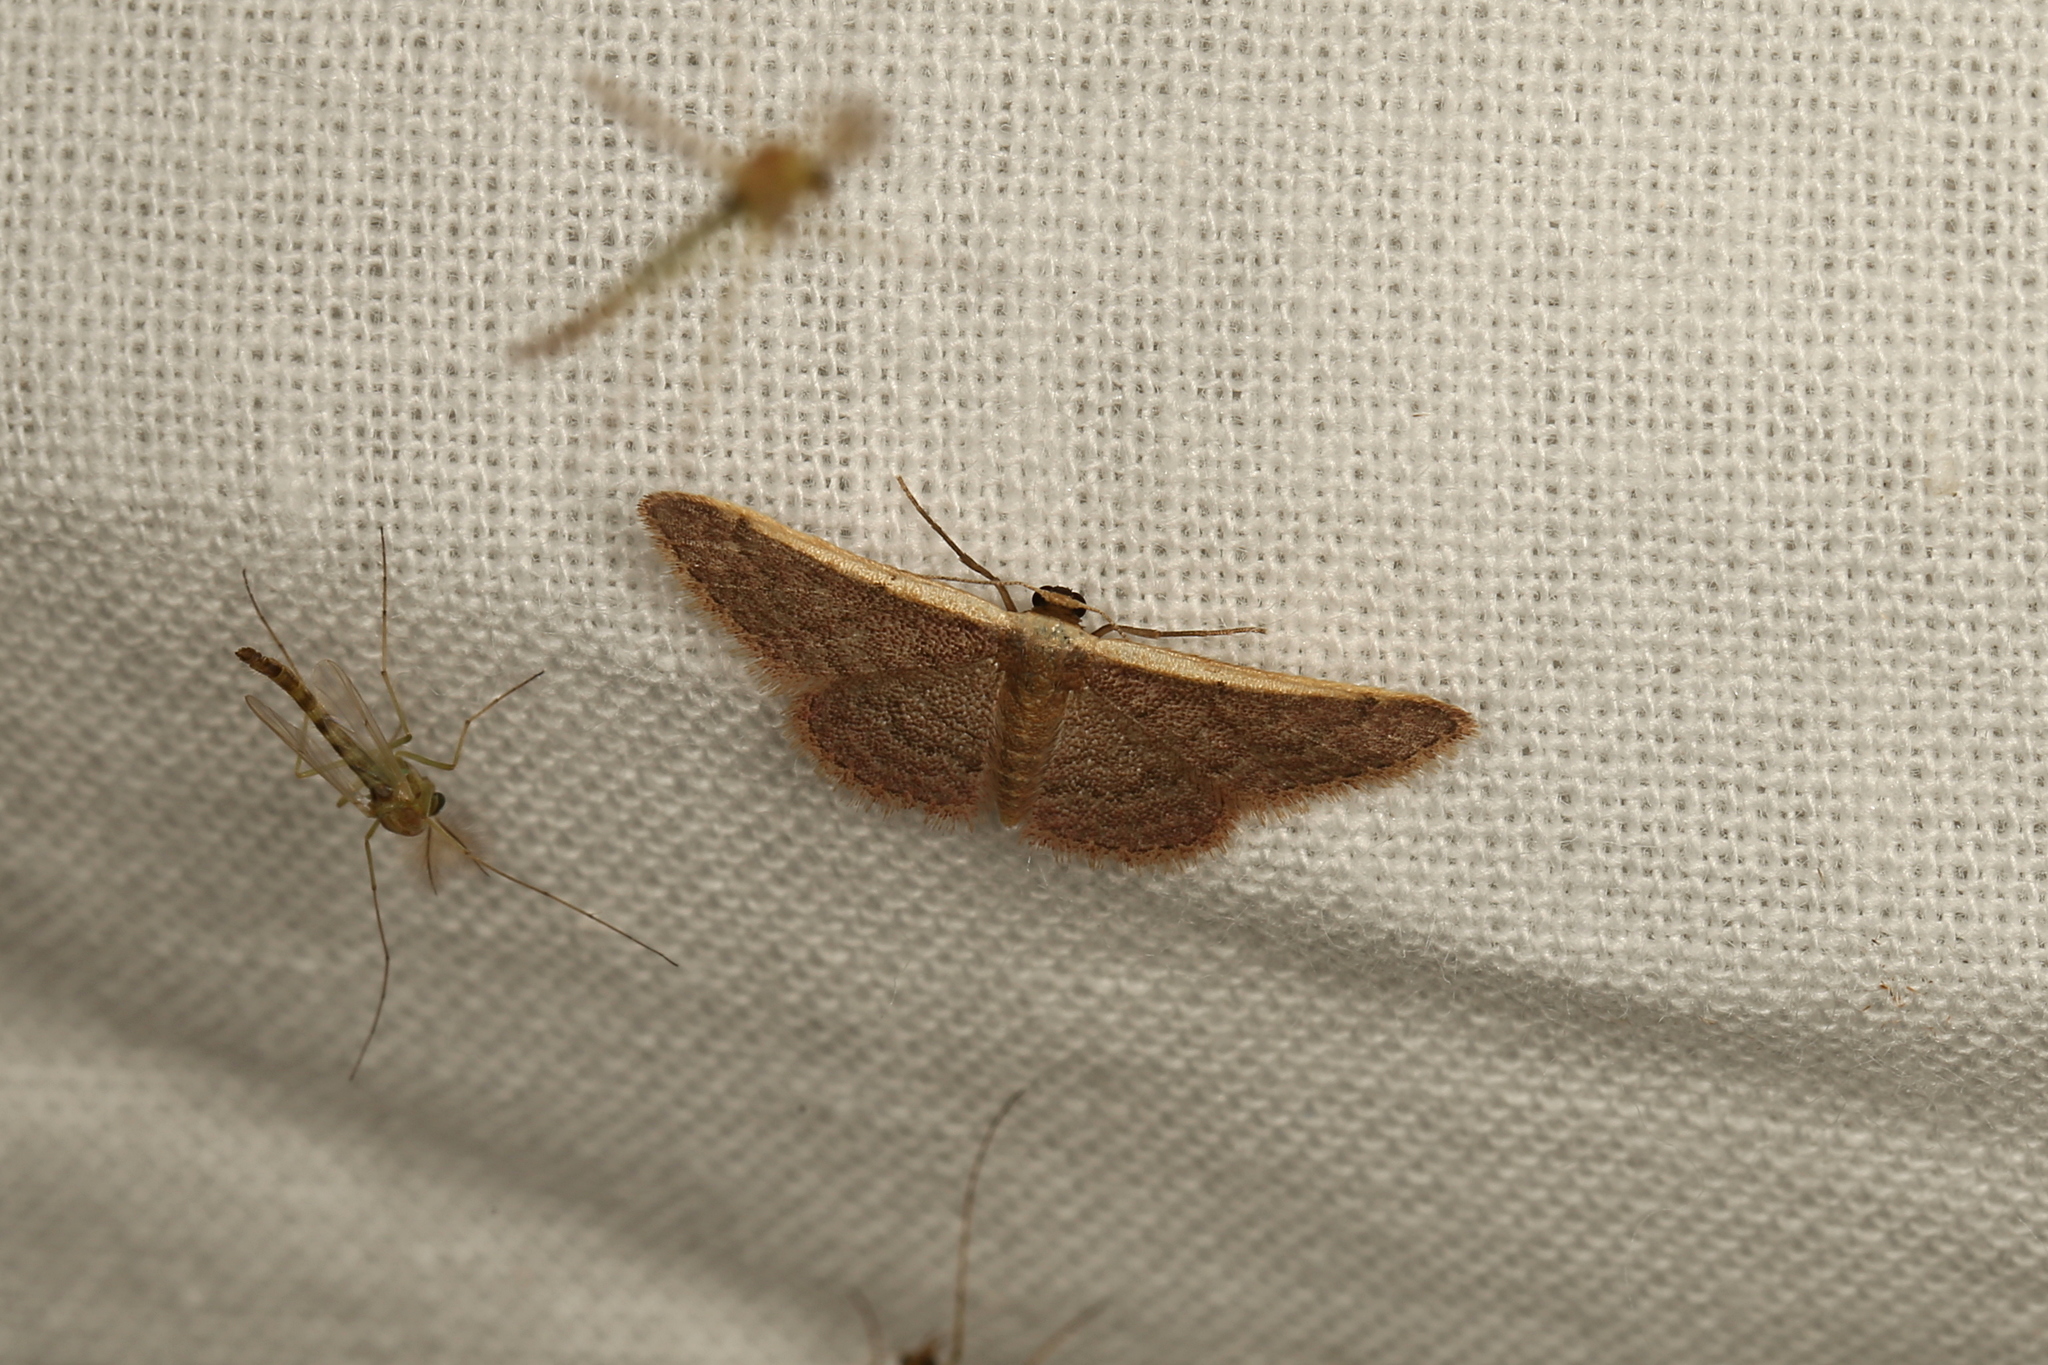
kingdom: Animalia
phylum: Arthropoda
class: Insecta
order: Lepidoptera
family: Geometridae
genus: Idaea
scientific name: Idaea costaria
